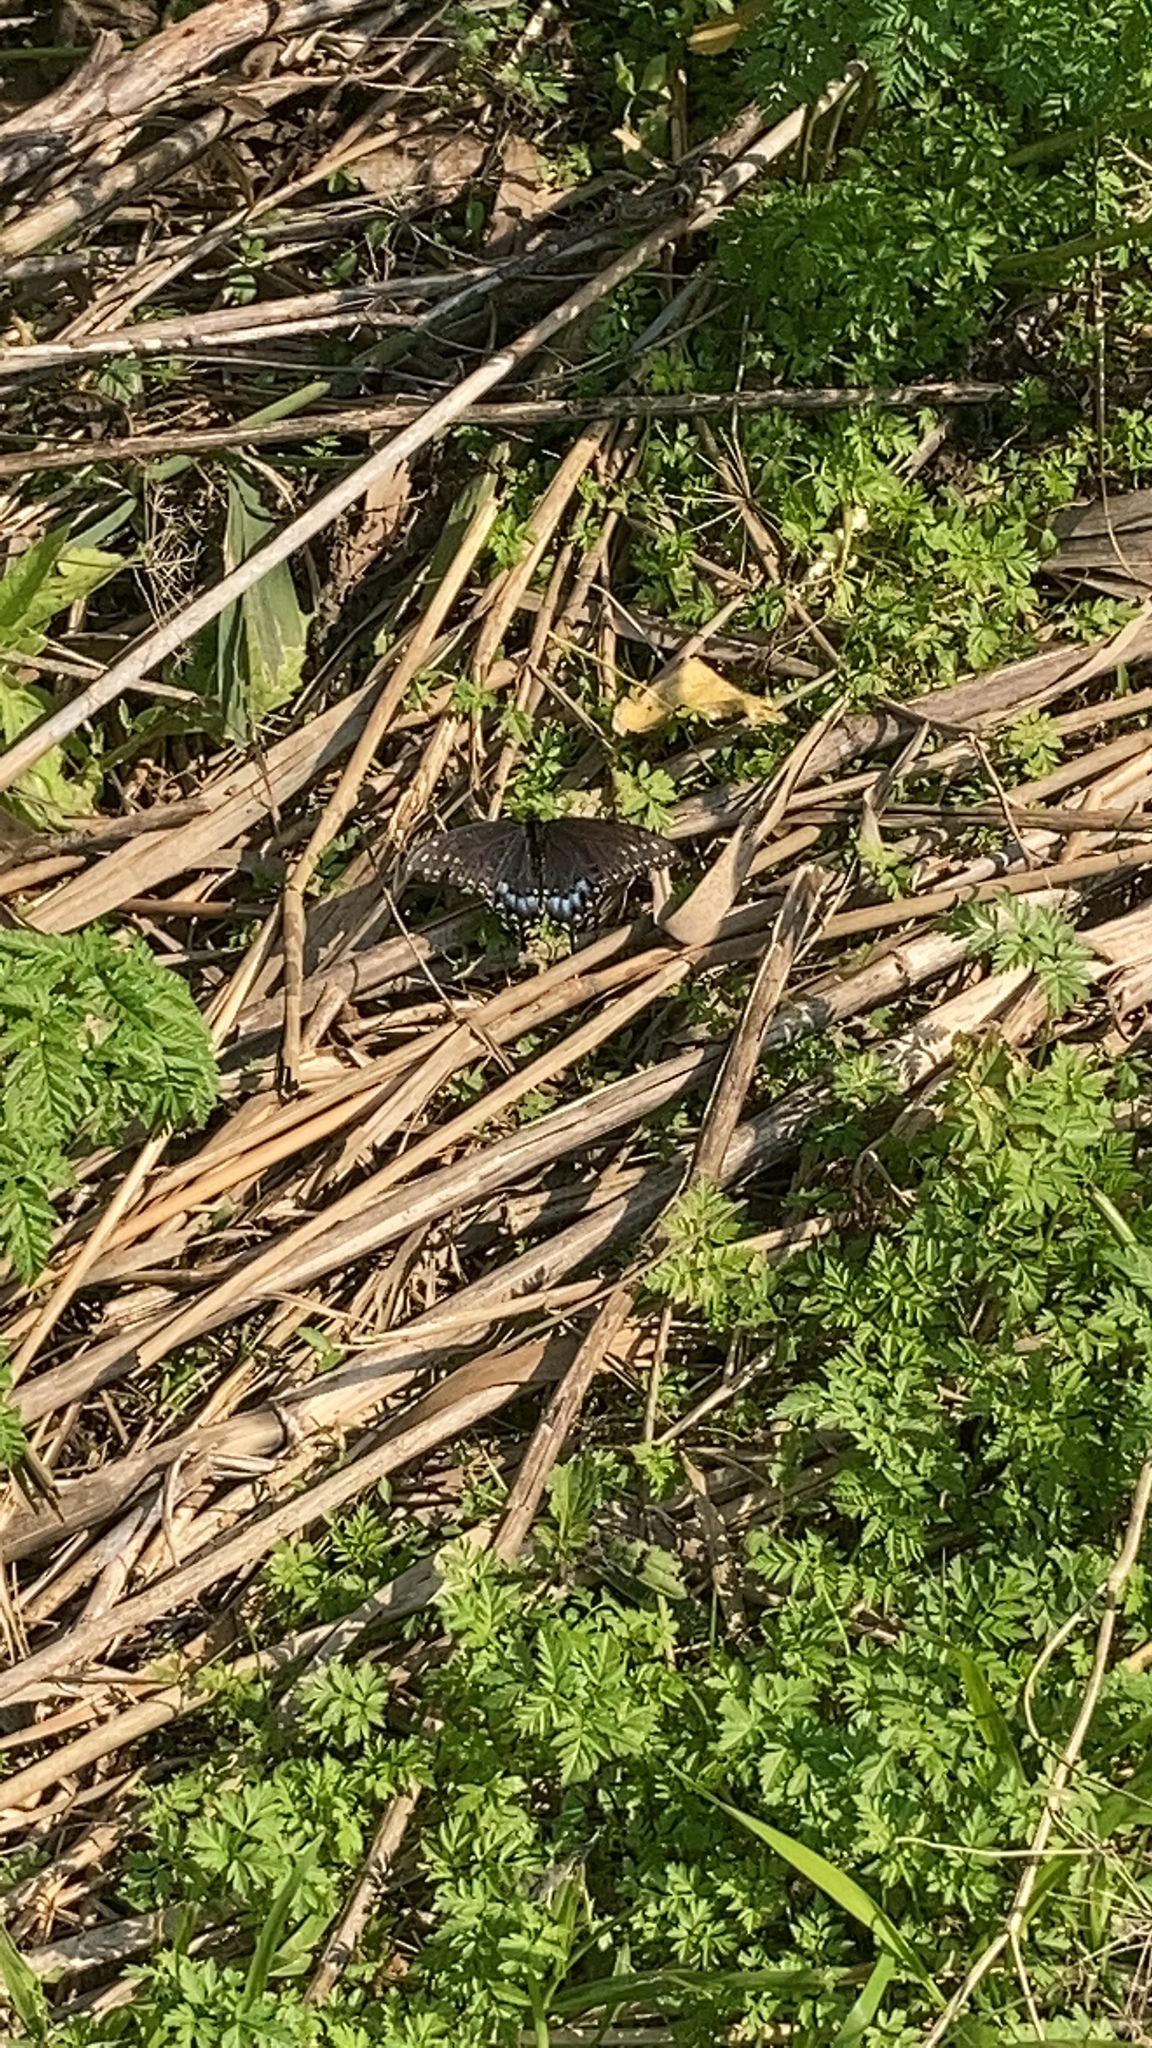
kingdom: Animalia
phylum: Arthropoda
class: Insecta
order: Lepidoptera
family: Papilionidae
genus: Papilio
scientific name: Papilio polyxenes
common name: Black swallowtail
